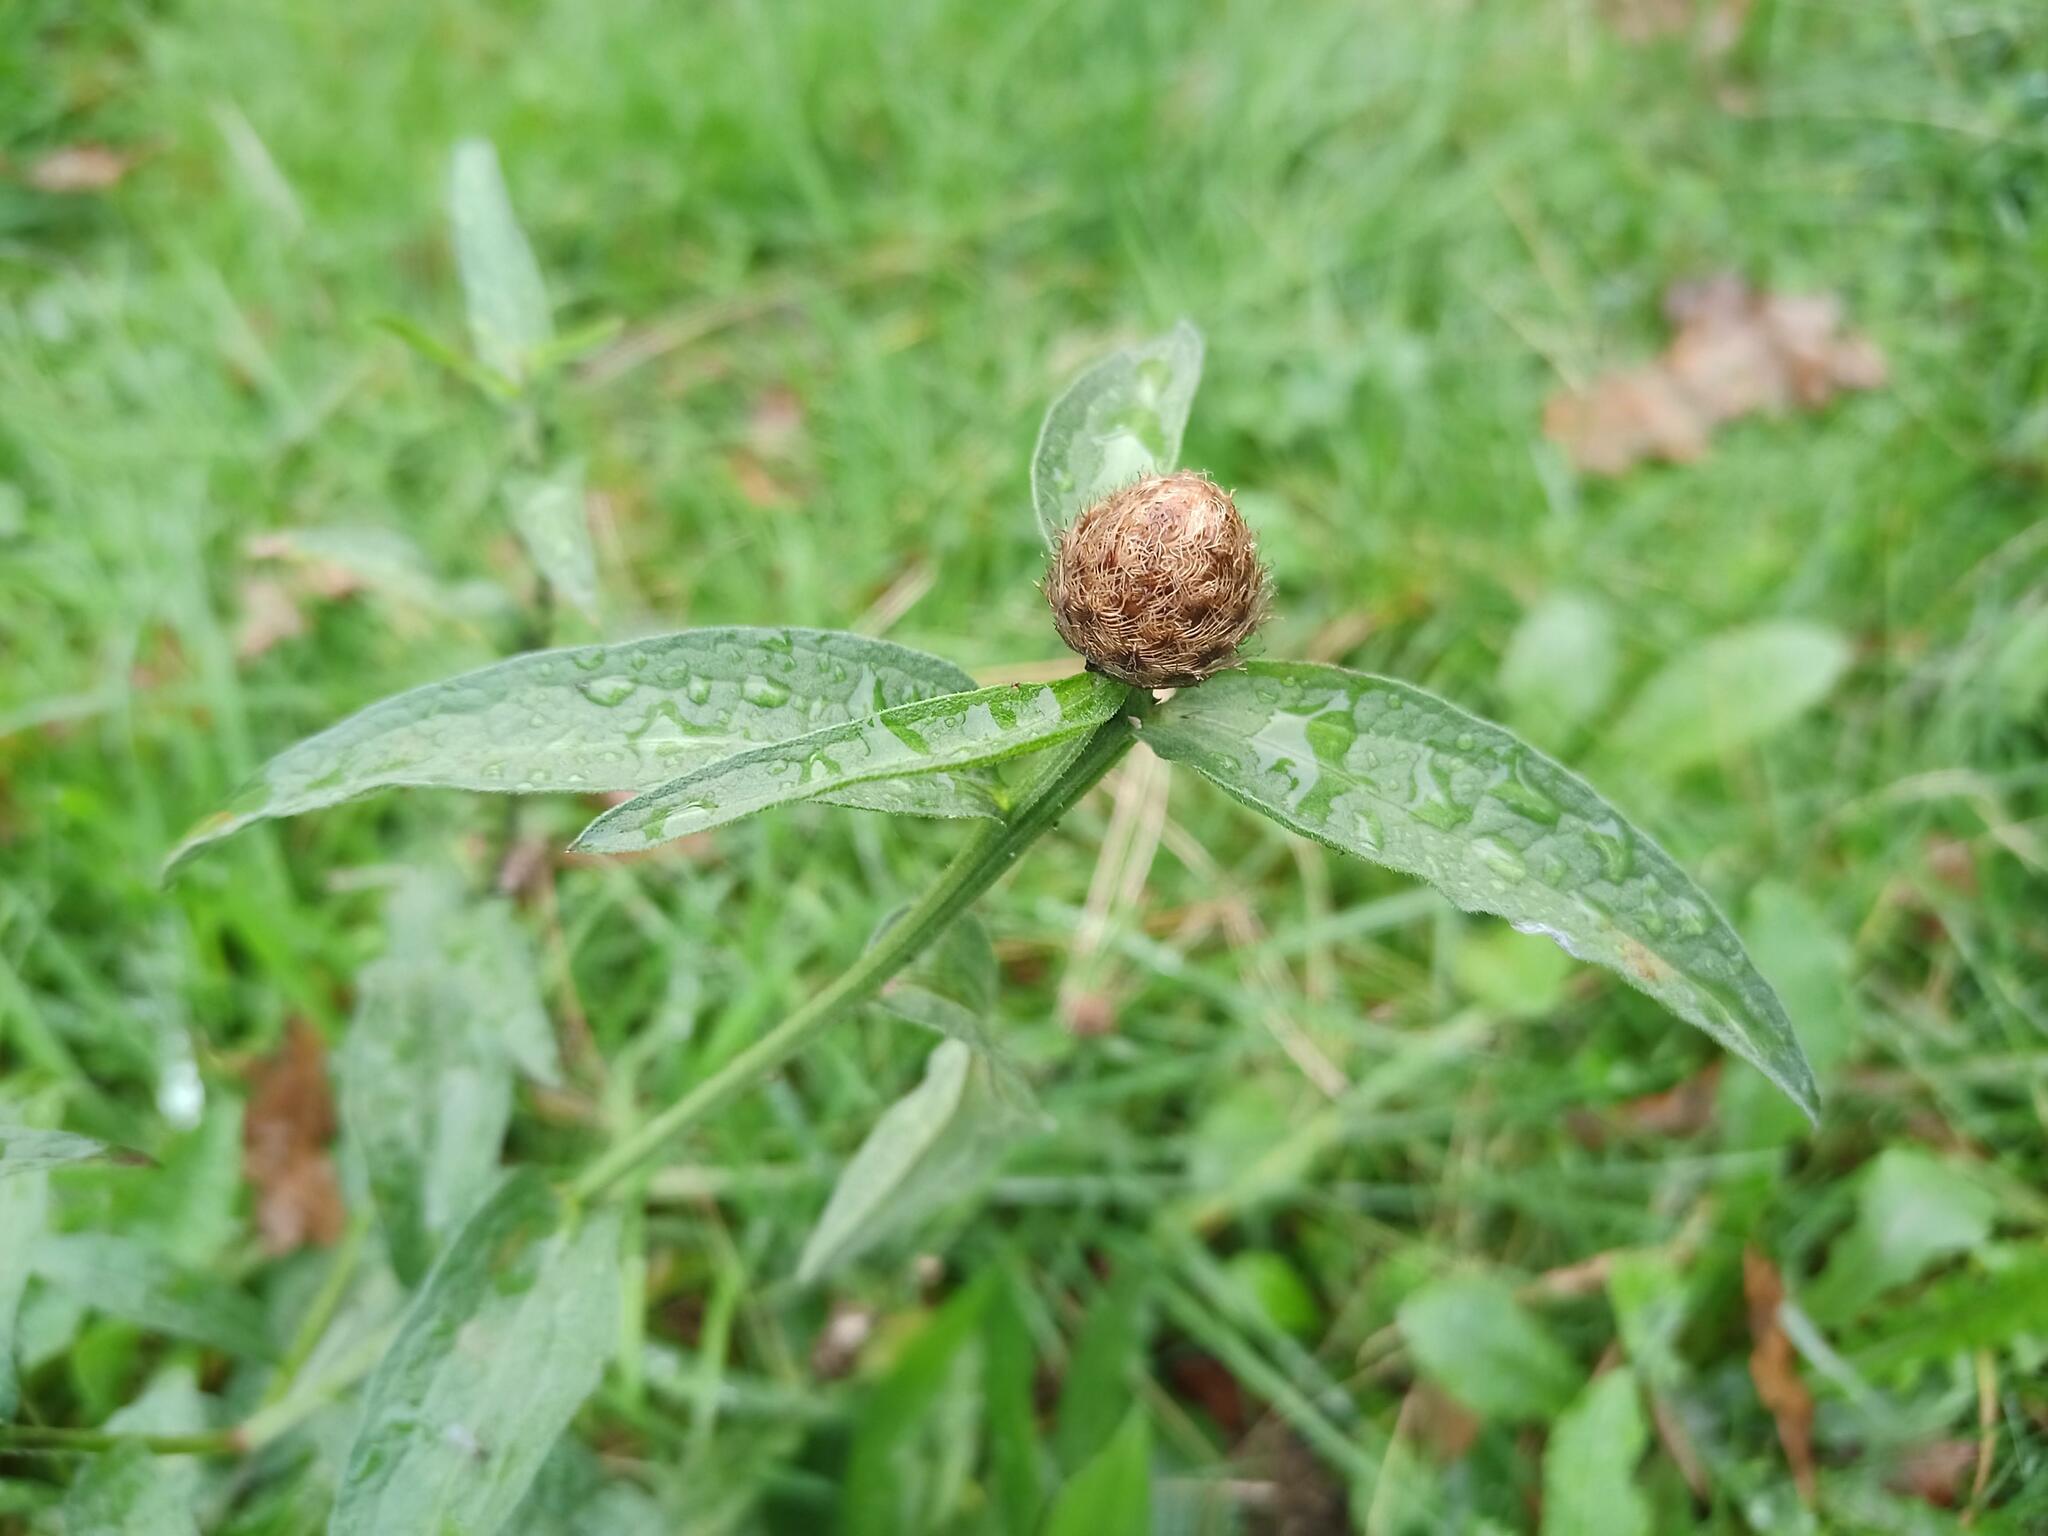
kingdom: Plantae
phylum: Tracheophyta
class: Magnoliopsida
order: Asterales
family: Asteraceae
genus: Centaurea
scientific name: Centaurea nigra
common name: Lesser knapweed
